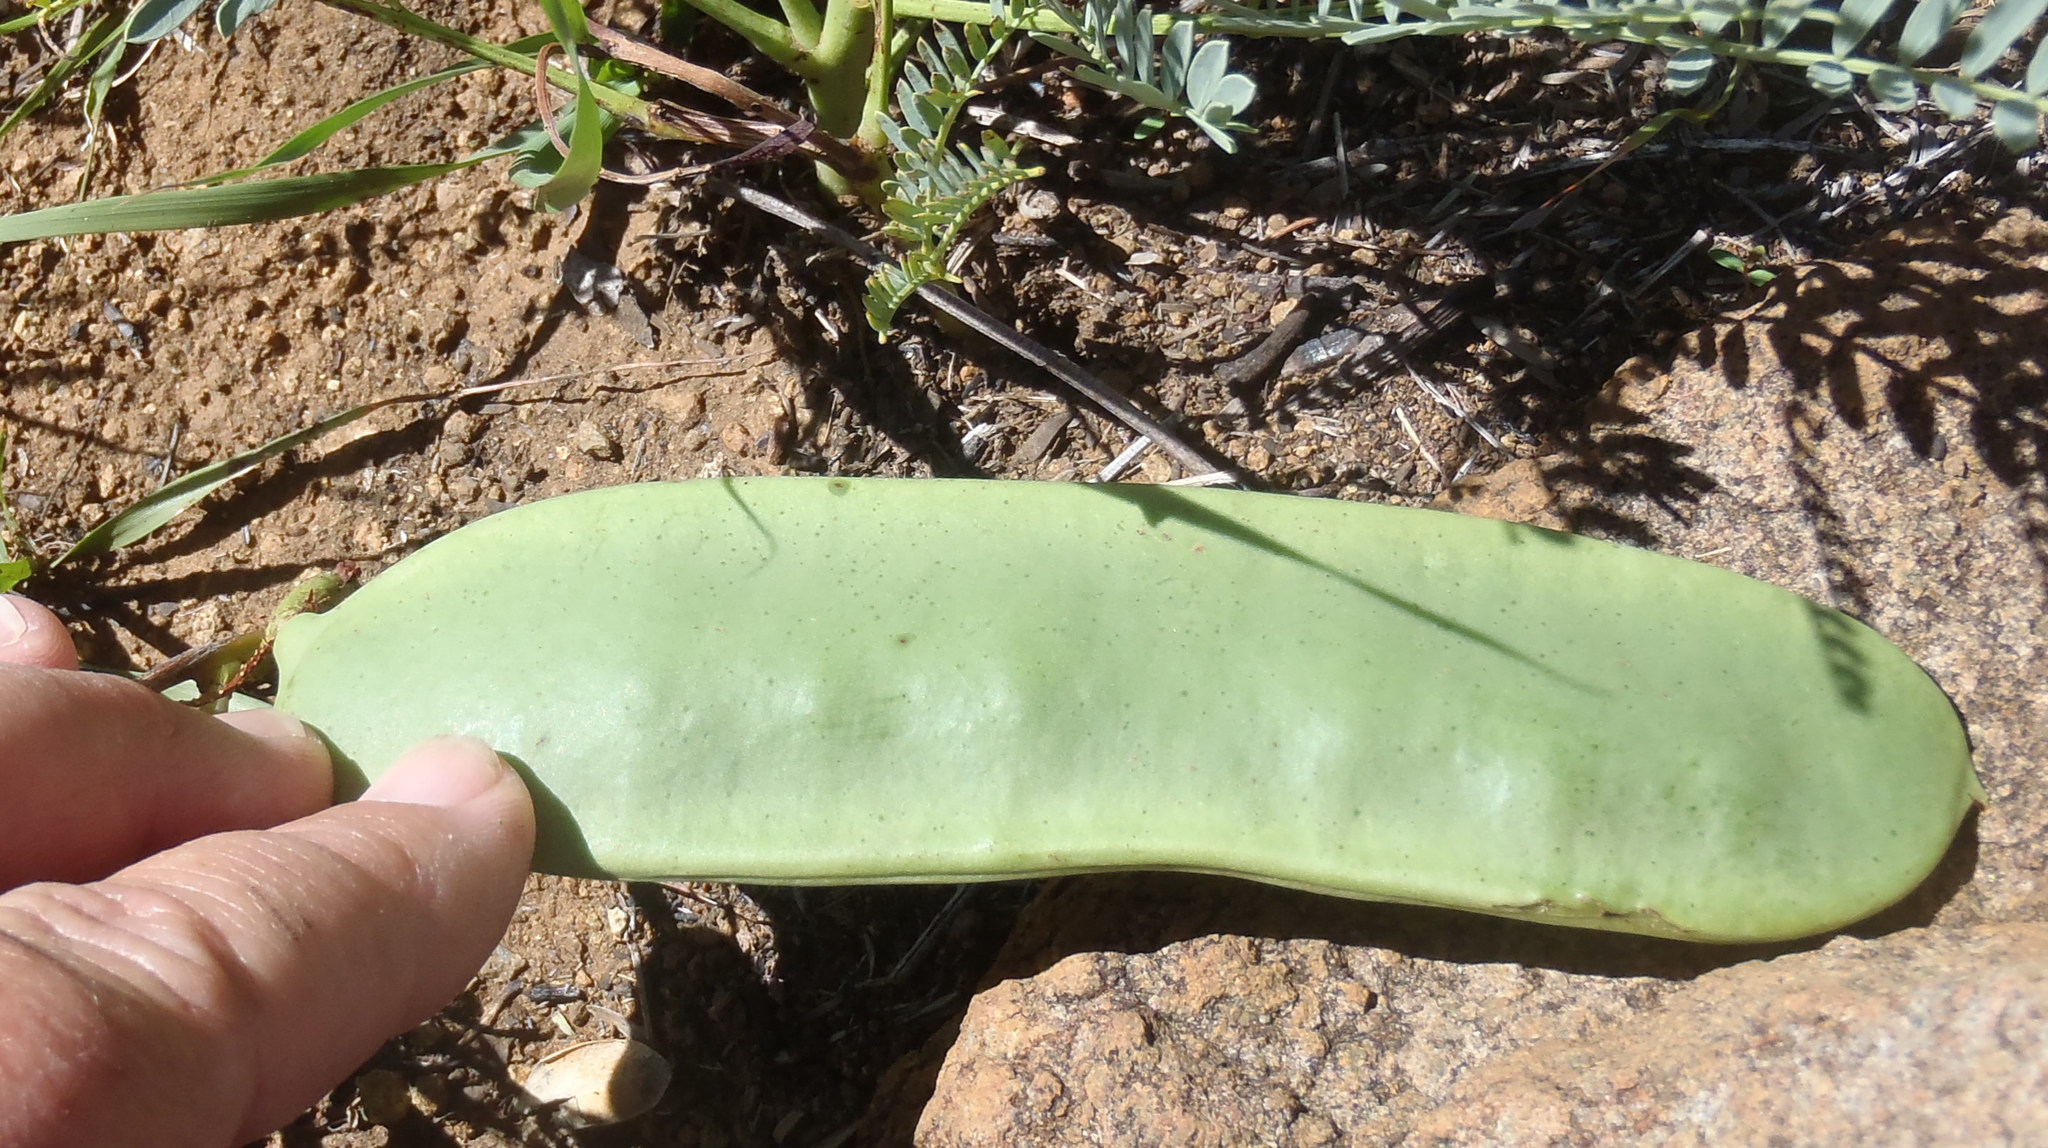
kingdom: Plantae
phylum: Tracheophyta
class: Magnoliopsida
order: Fabales
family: Fabaceae
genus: Elephantorrhiza
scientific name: Elephantorrhiza elephantina
